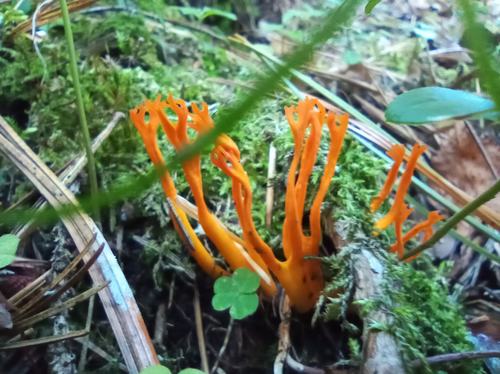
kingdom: Fungi
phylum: Basidiomycota
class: Dacrymycetes
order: Dacrymycetales
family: Dacrymycetaceae
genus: Calocera
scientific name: Calocera viscosa
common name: Yellow stagshorn
